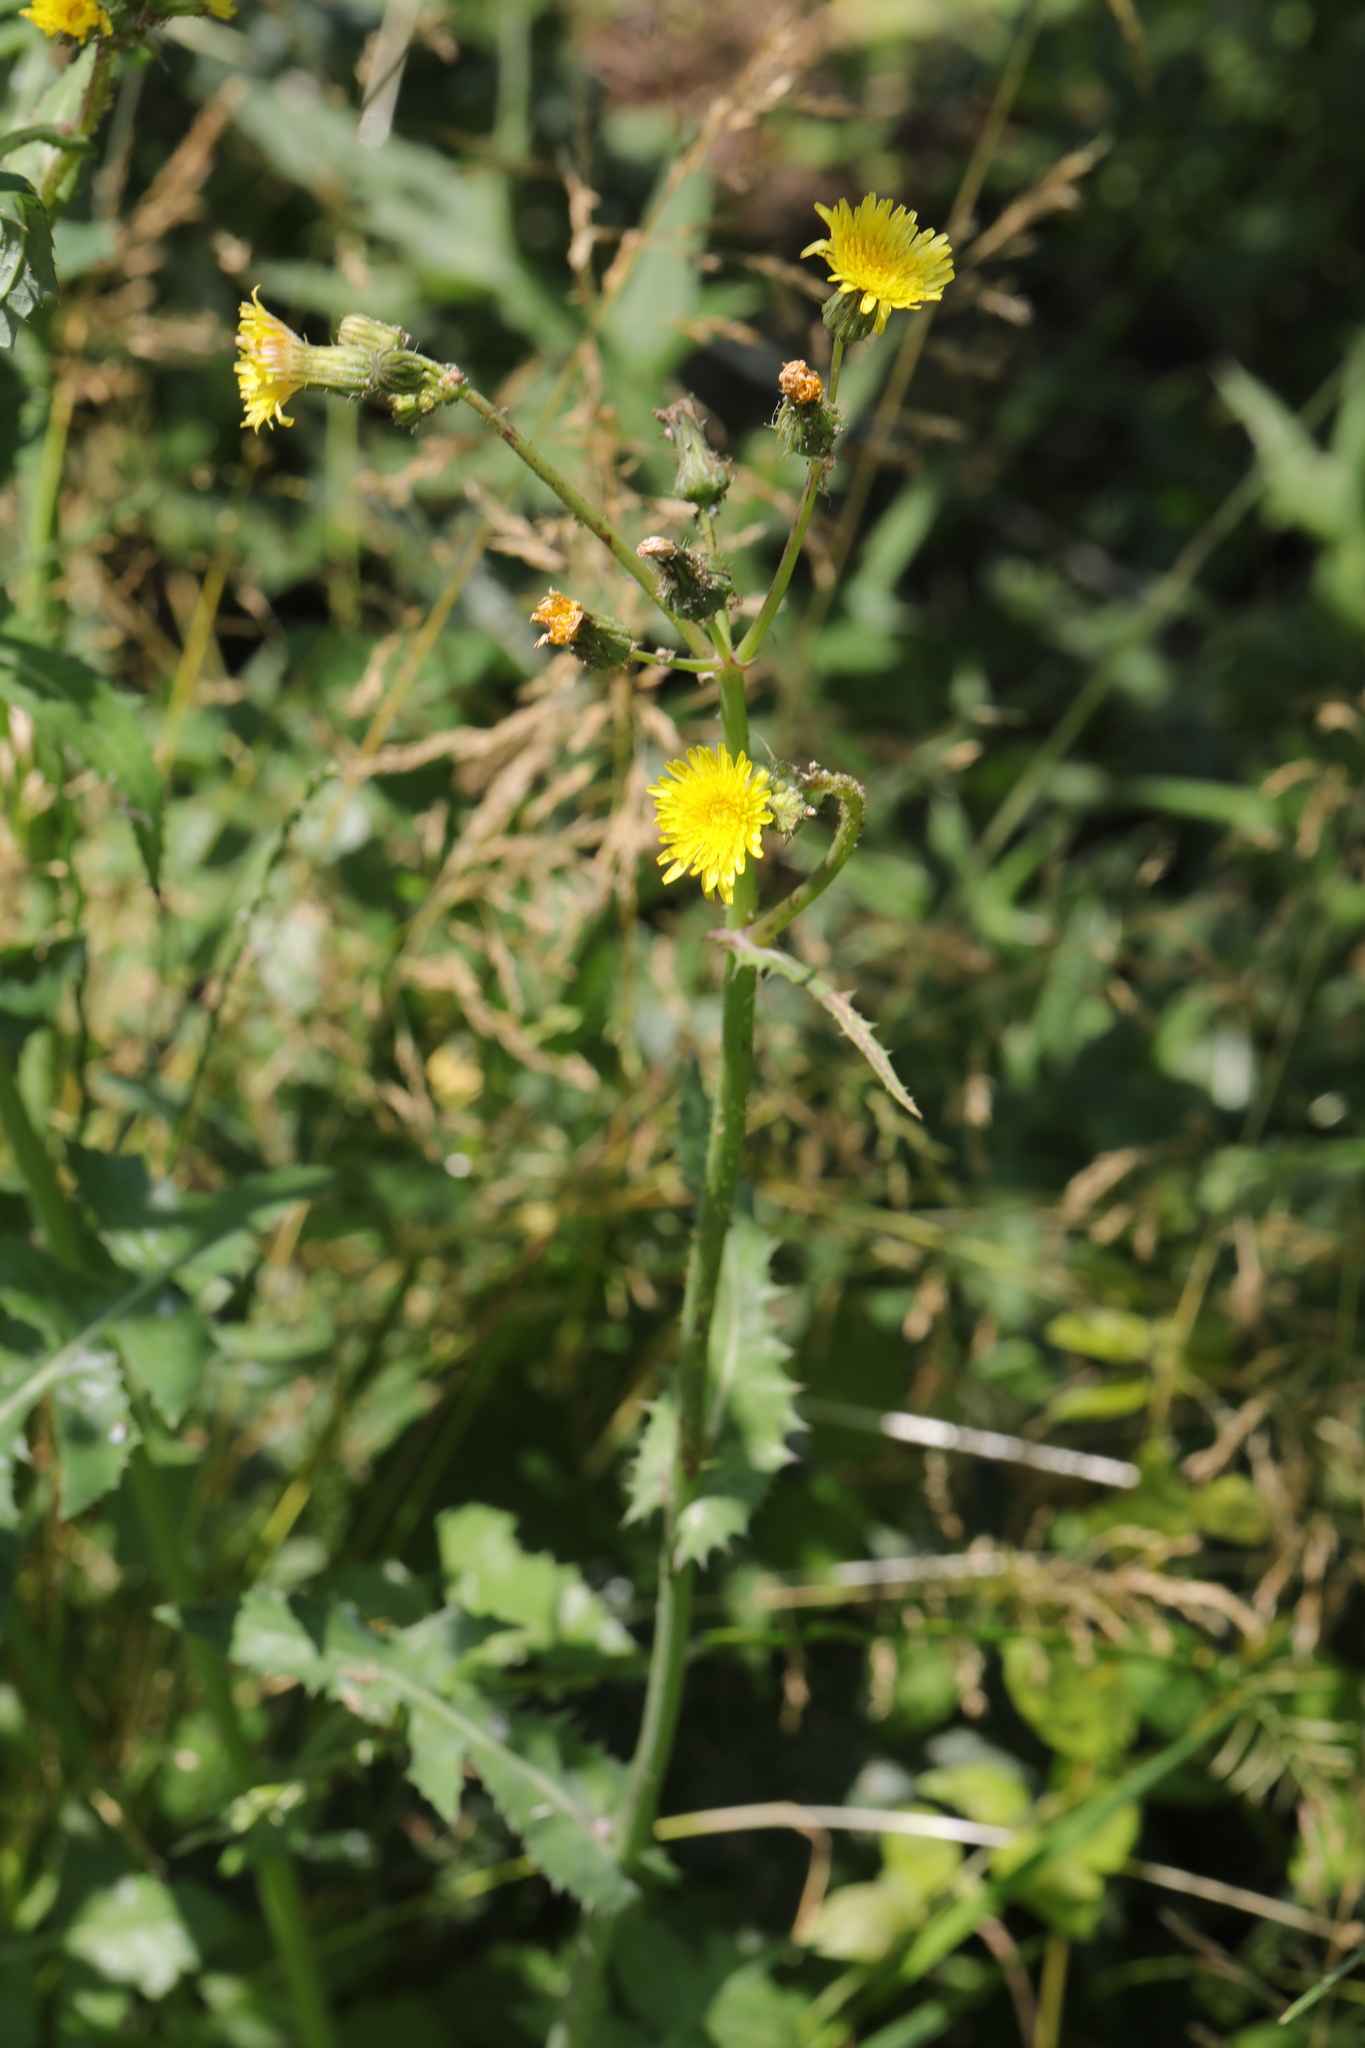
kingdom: Plantae
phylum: Tracheophyta
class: Magnoliopsida
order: Asterales
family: Asteraceae
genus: Sonchus
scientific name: Sonchus oleraceus
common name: Common sowthistle
